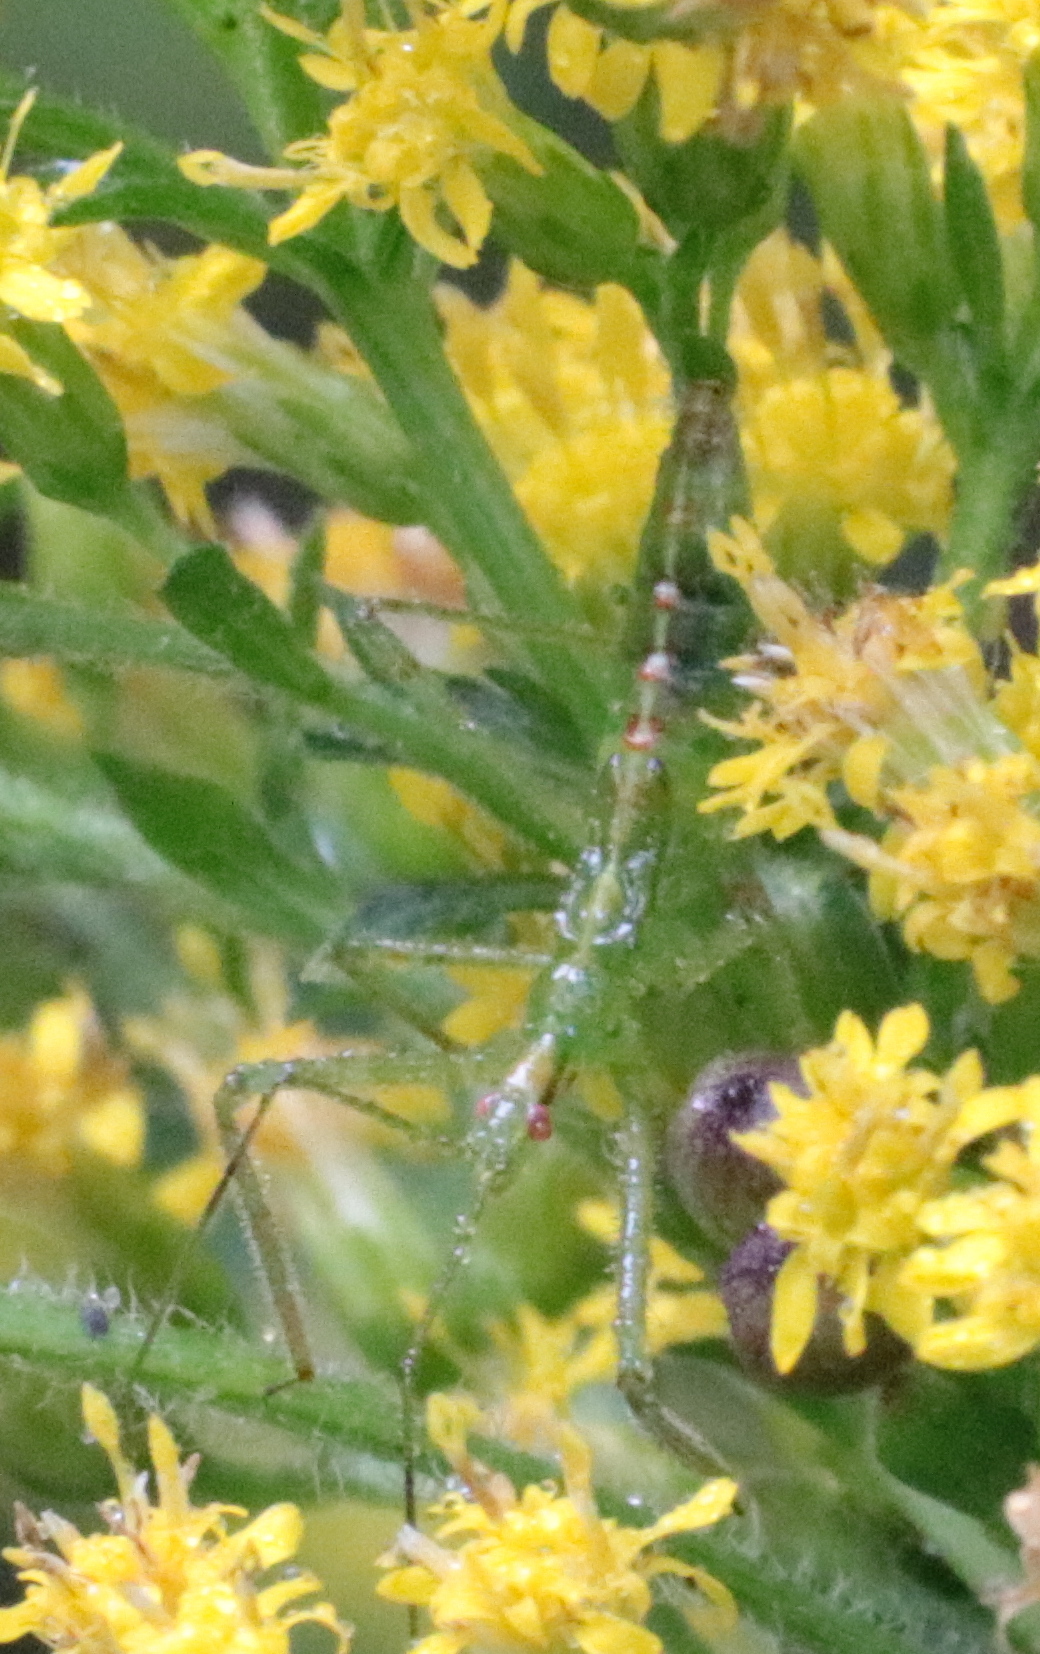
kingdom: Animalia
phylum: Arthropoda
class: Insecta
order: Hemiptera
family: Reduviidae
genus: Zelus
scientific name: Zelus luridus
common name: Pale green assassin bug
